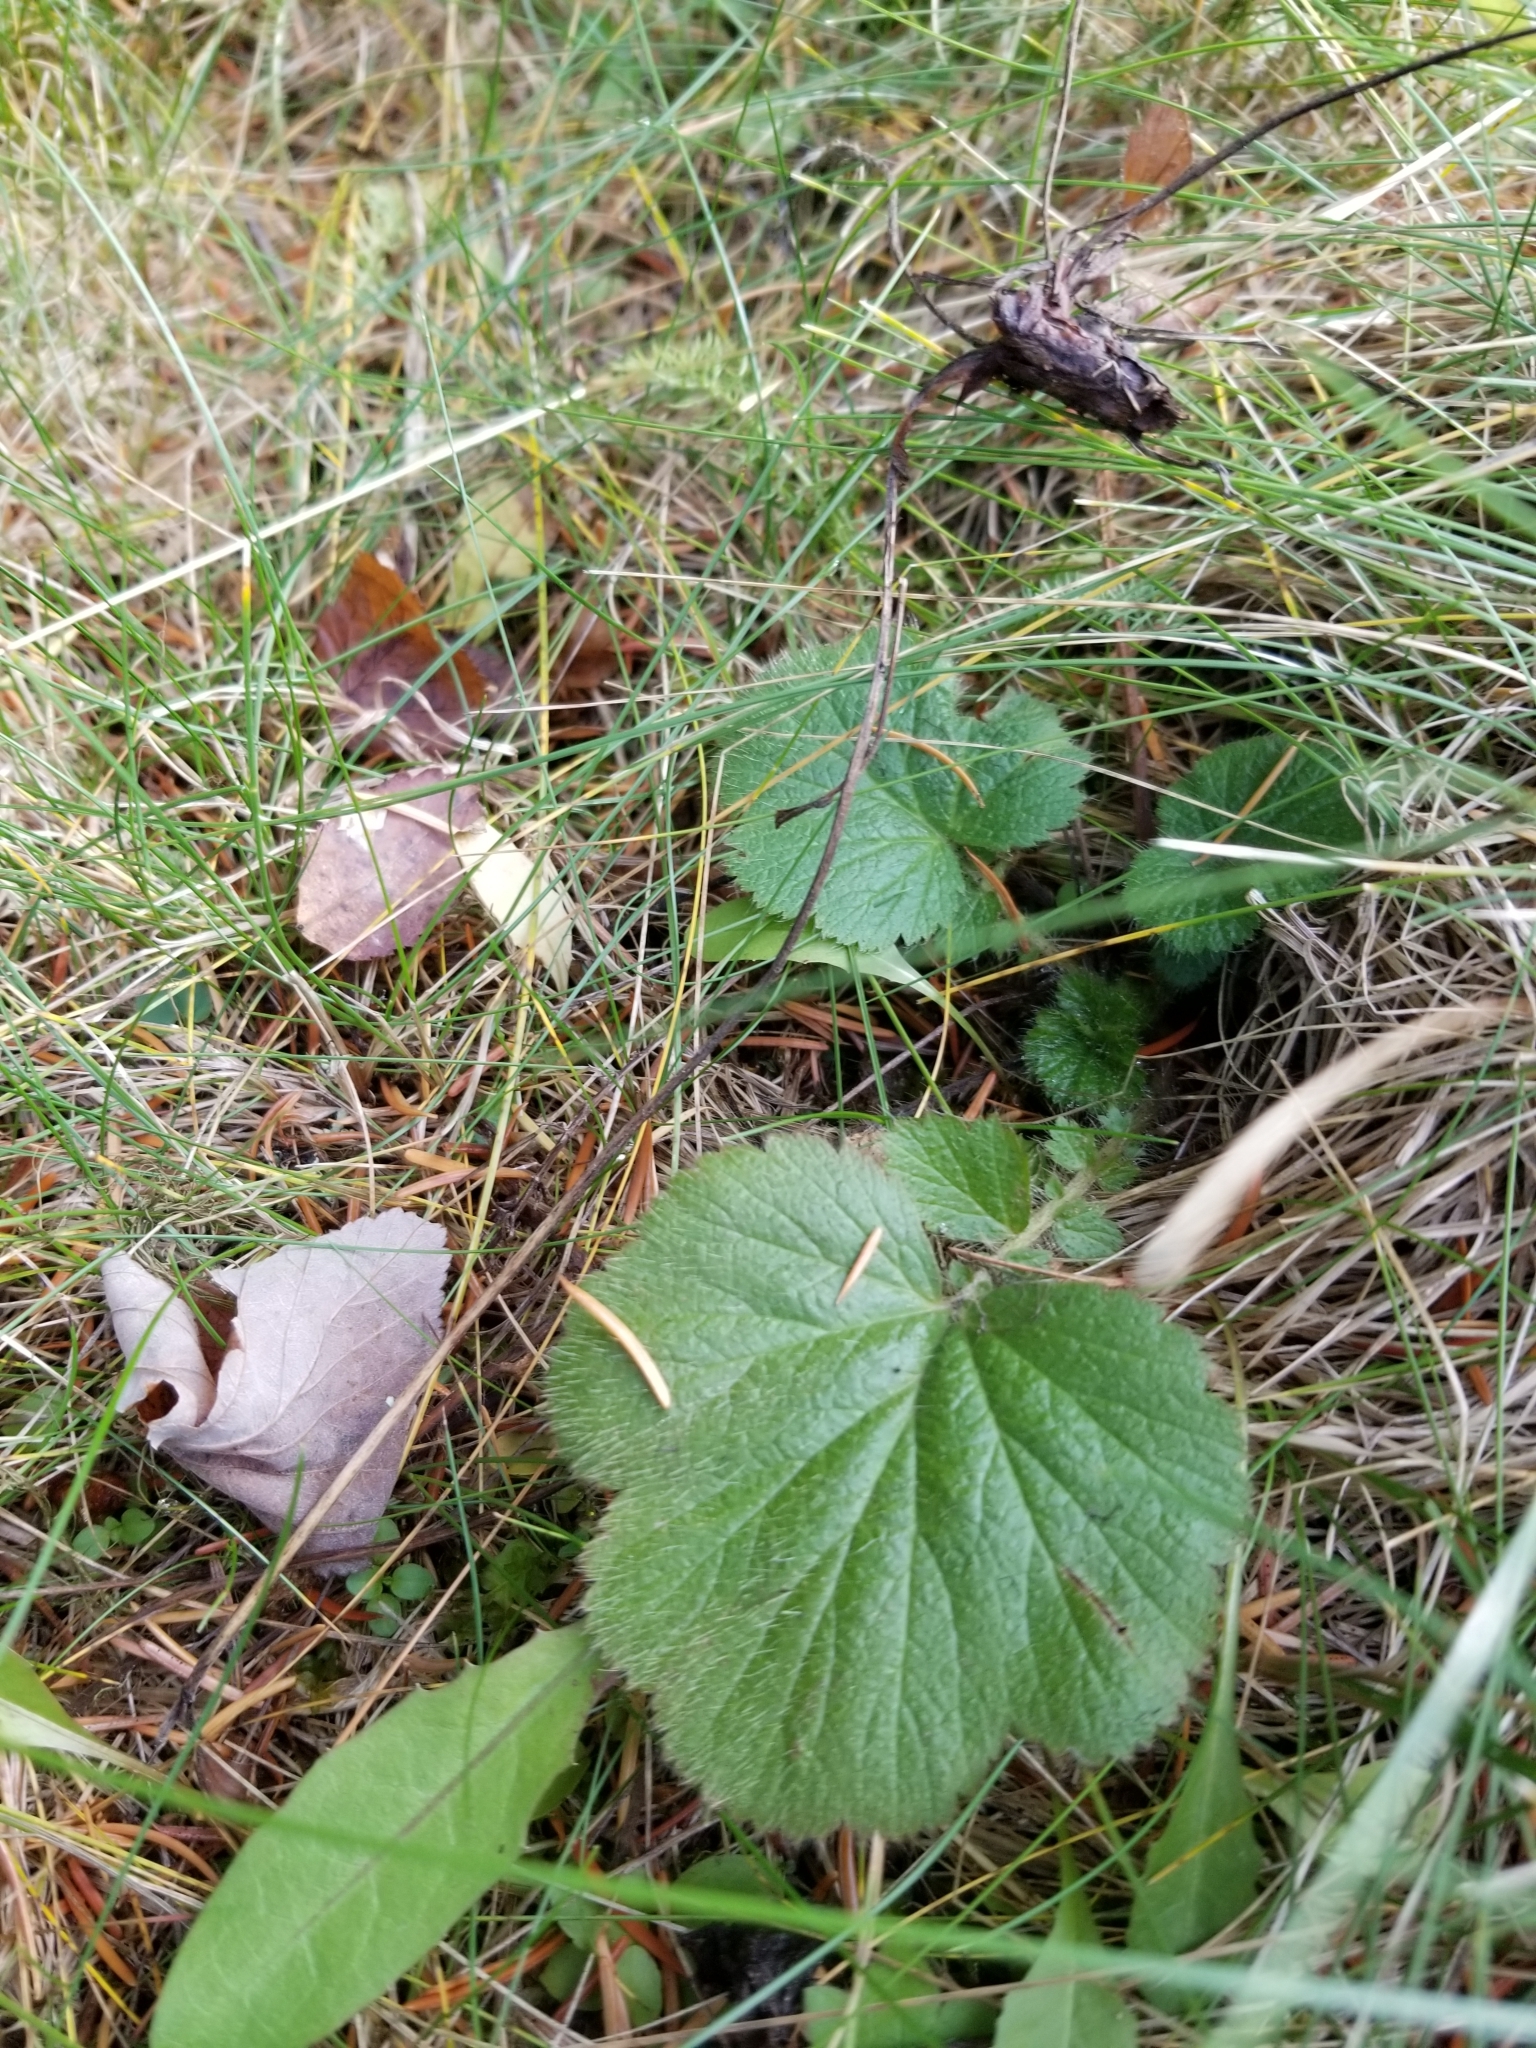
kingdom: Plantae
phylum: Tracheophyta
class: Magnoliopsida
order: Rosales
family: Rosaceae
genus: Geum
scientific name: Geum macrophyllum
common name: Large-leaved avens
